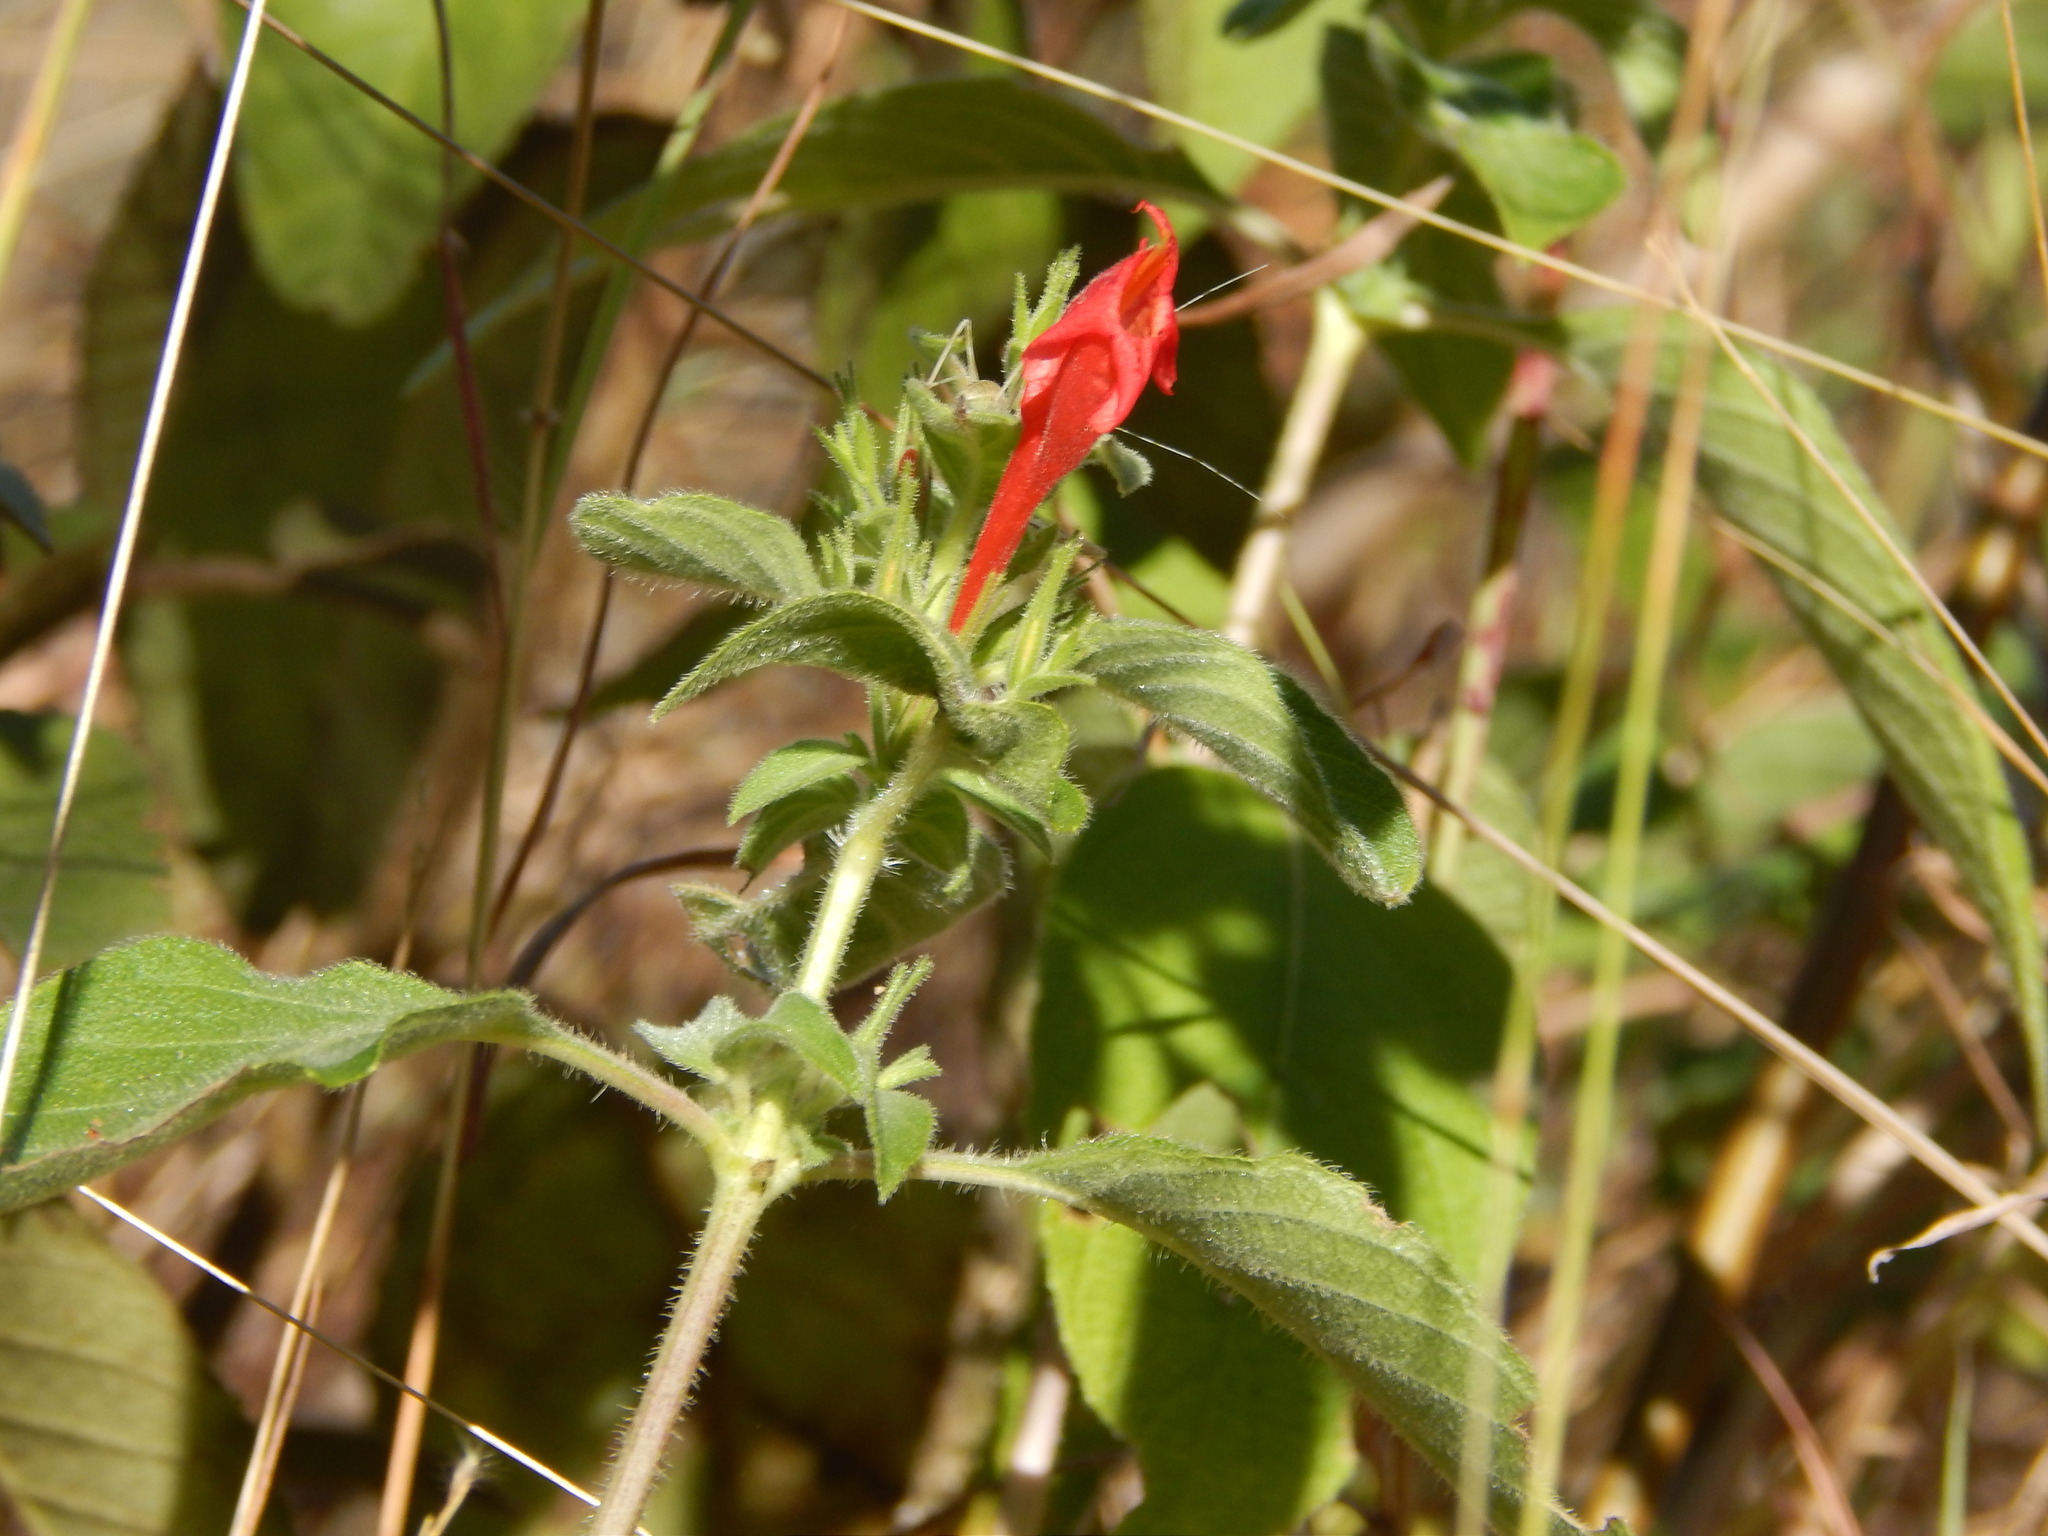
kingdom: Plantae
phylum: Tracheophyta
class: Magnoliopsida
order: Lamiales
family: Acanthaceae
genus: Ruellia
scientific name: Ruellia asperula
